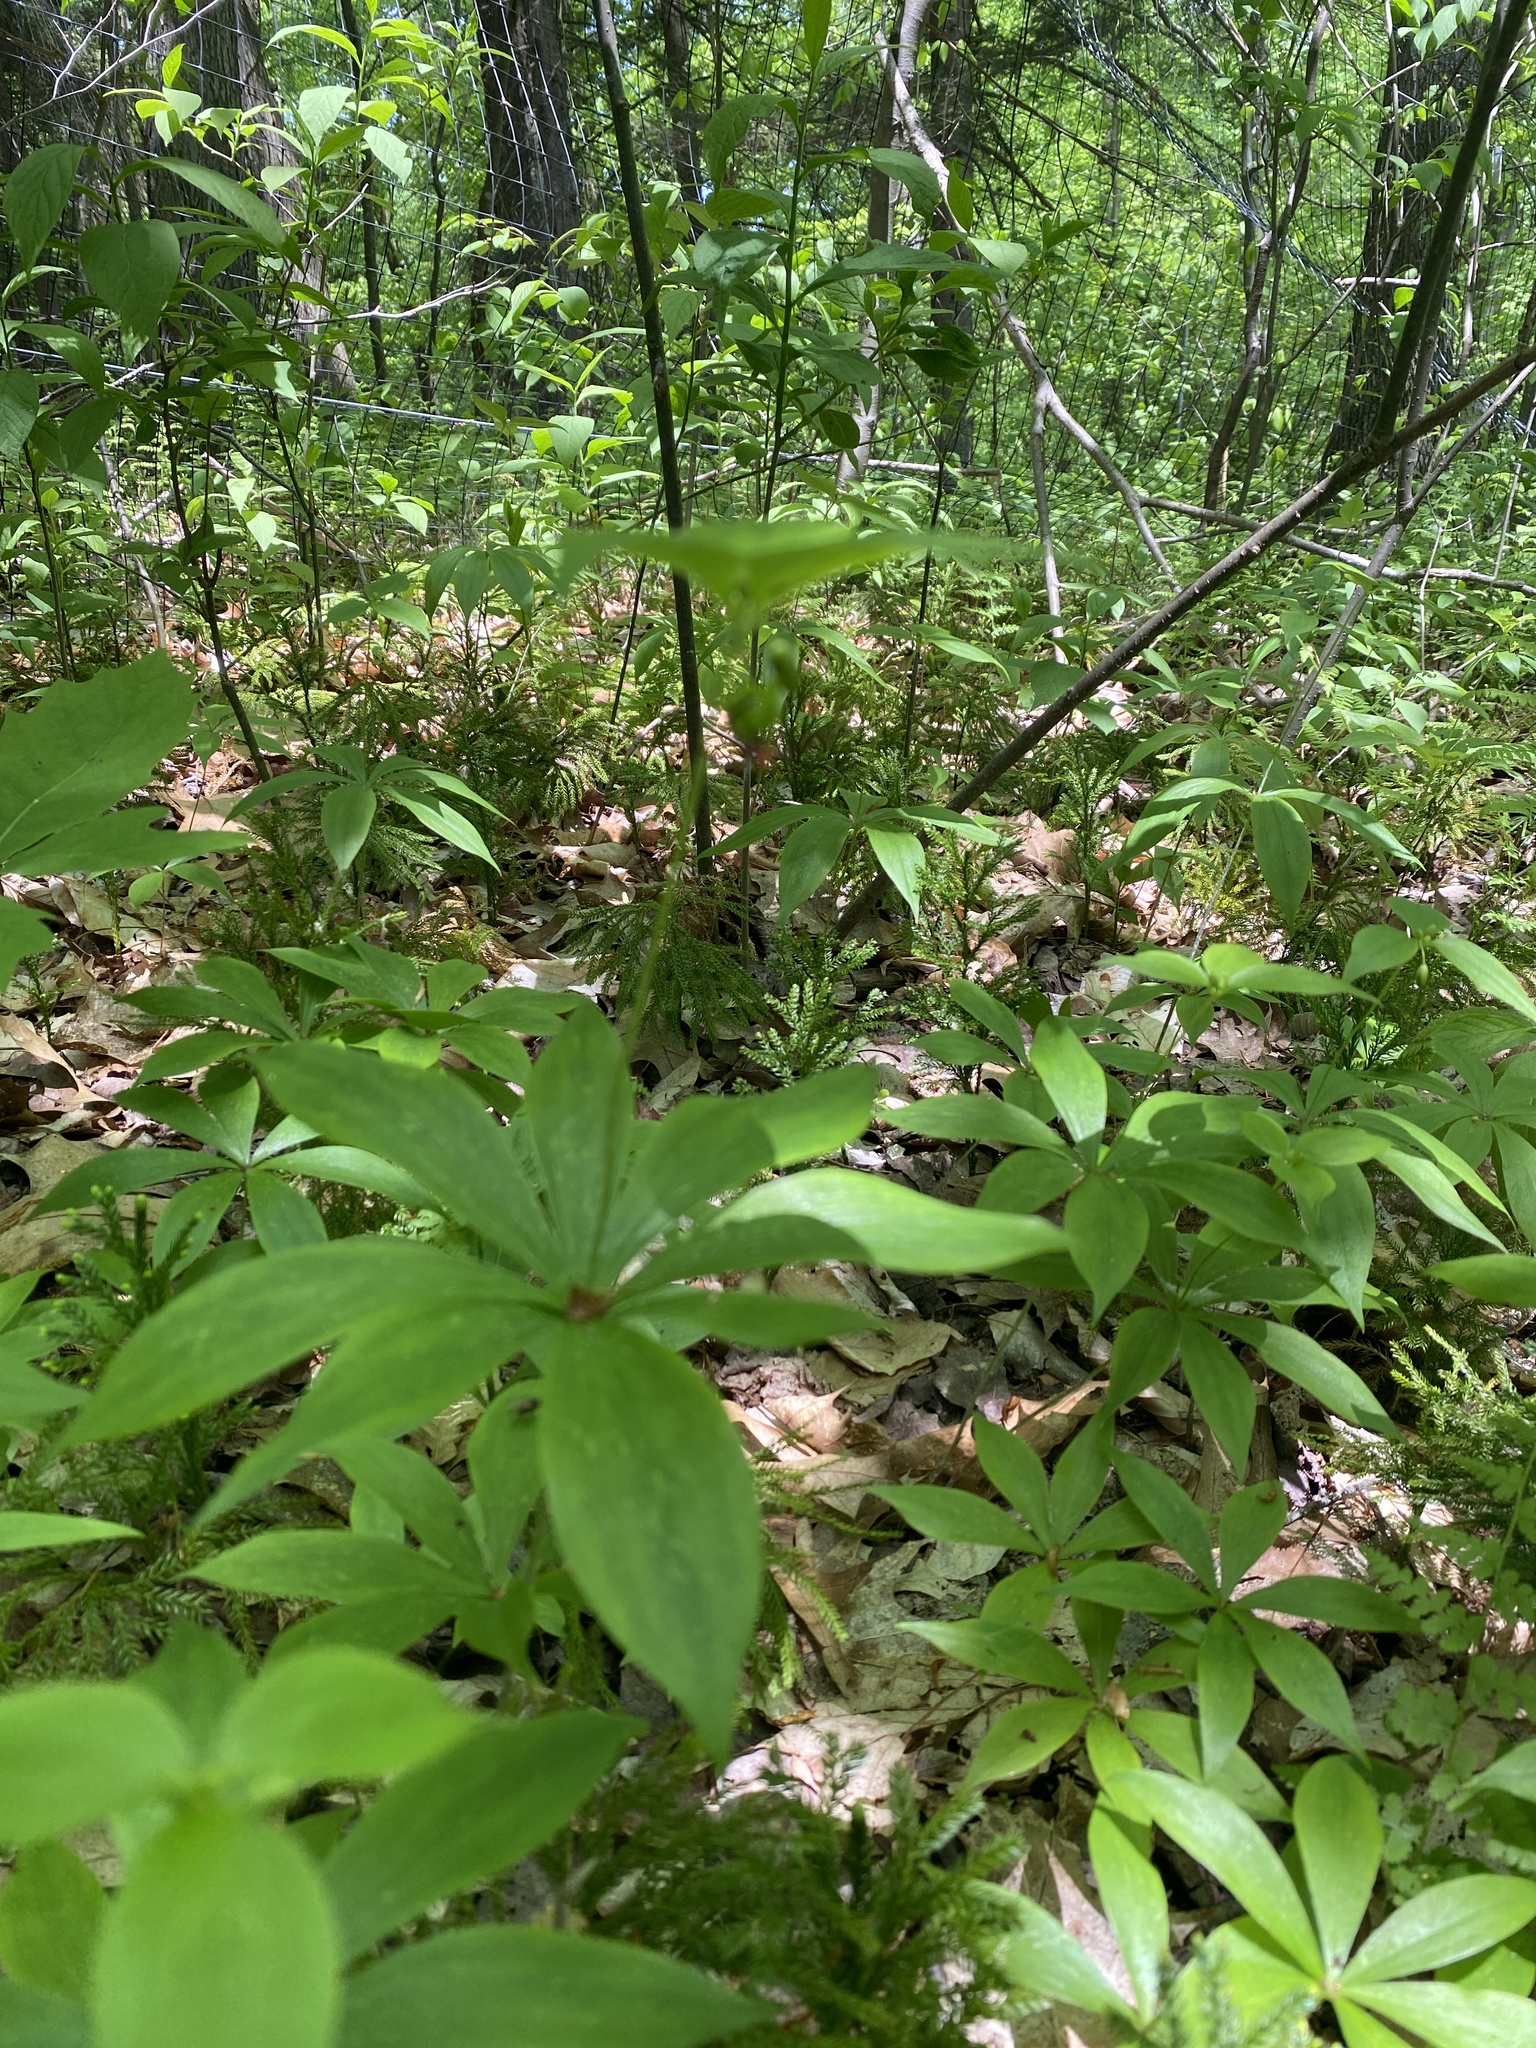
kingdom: Plantae
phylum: Tracheophyta
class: Liliopsida
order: Liliales
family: Liliaceae
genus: Medeola
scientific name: Medeola virginiana
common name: Indian cucumber-root
